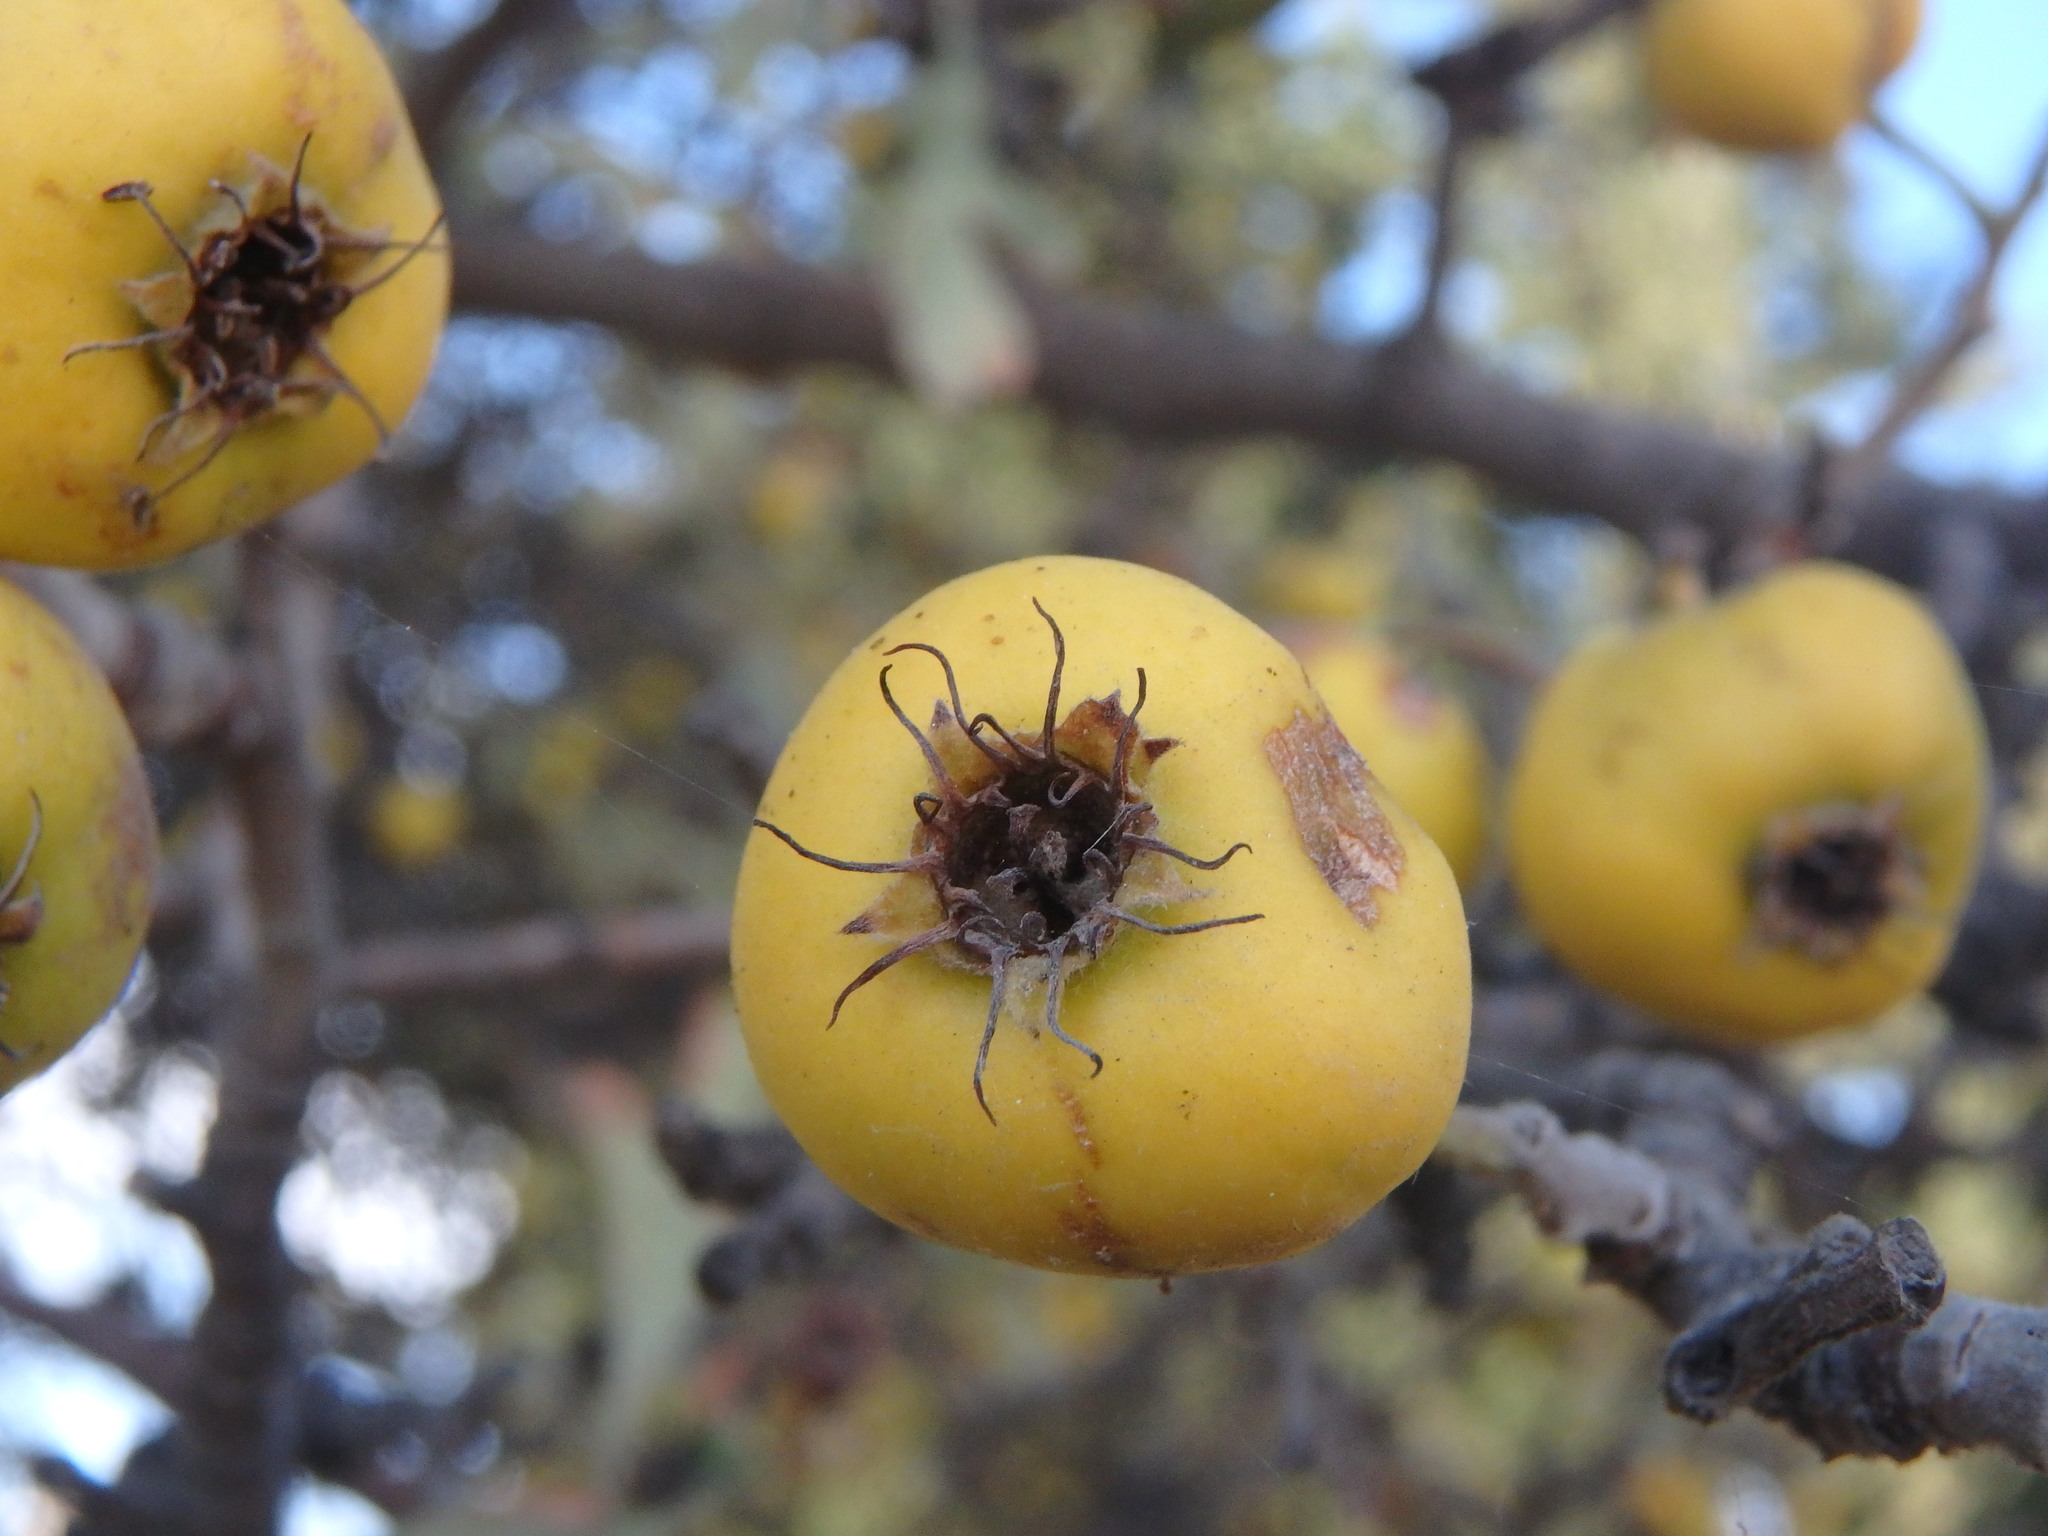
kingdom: Plantae
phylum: Tracheophyta
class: Magnoliopsida
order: Rosales
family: Rosaceae
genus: Crataegus
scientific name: Crataegus azarolus
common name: Azarole
